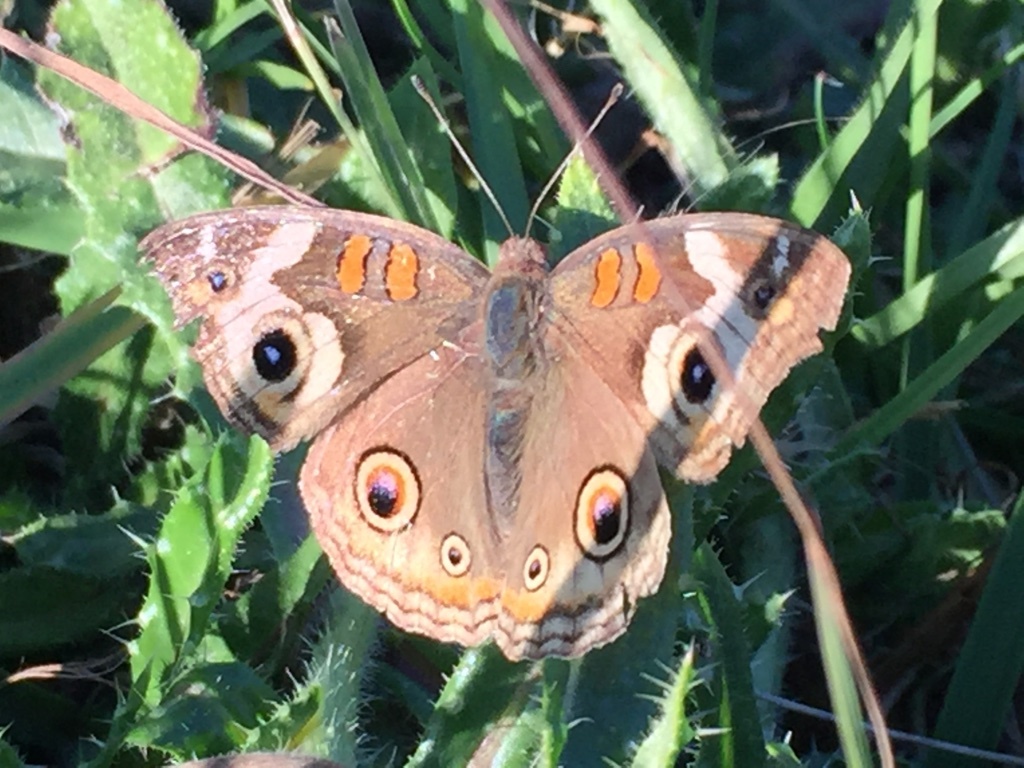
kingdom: Animalia
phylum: Arthropoda
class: Insecta
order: Lepidoptera
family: Nymphalidae
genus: Junonia
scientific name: Junonia grisea
